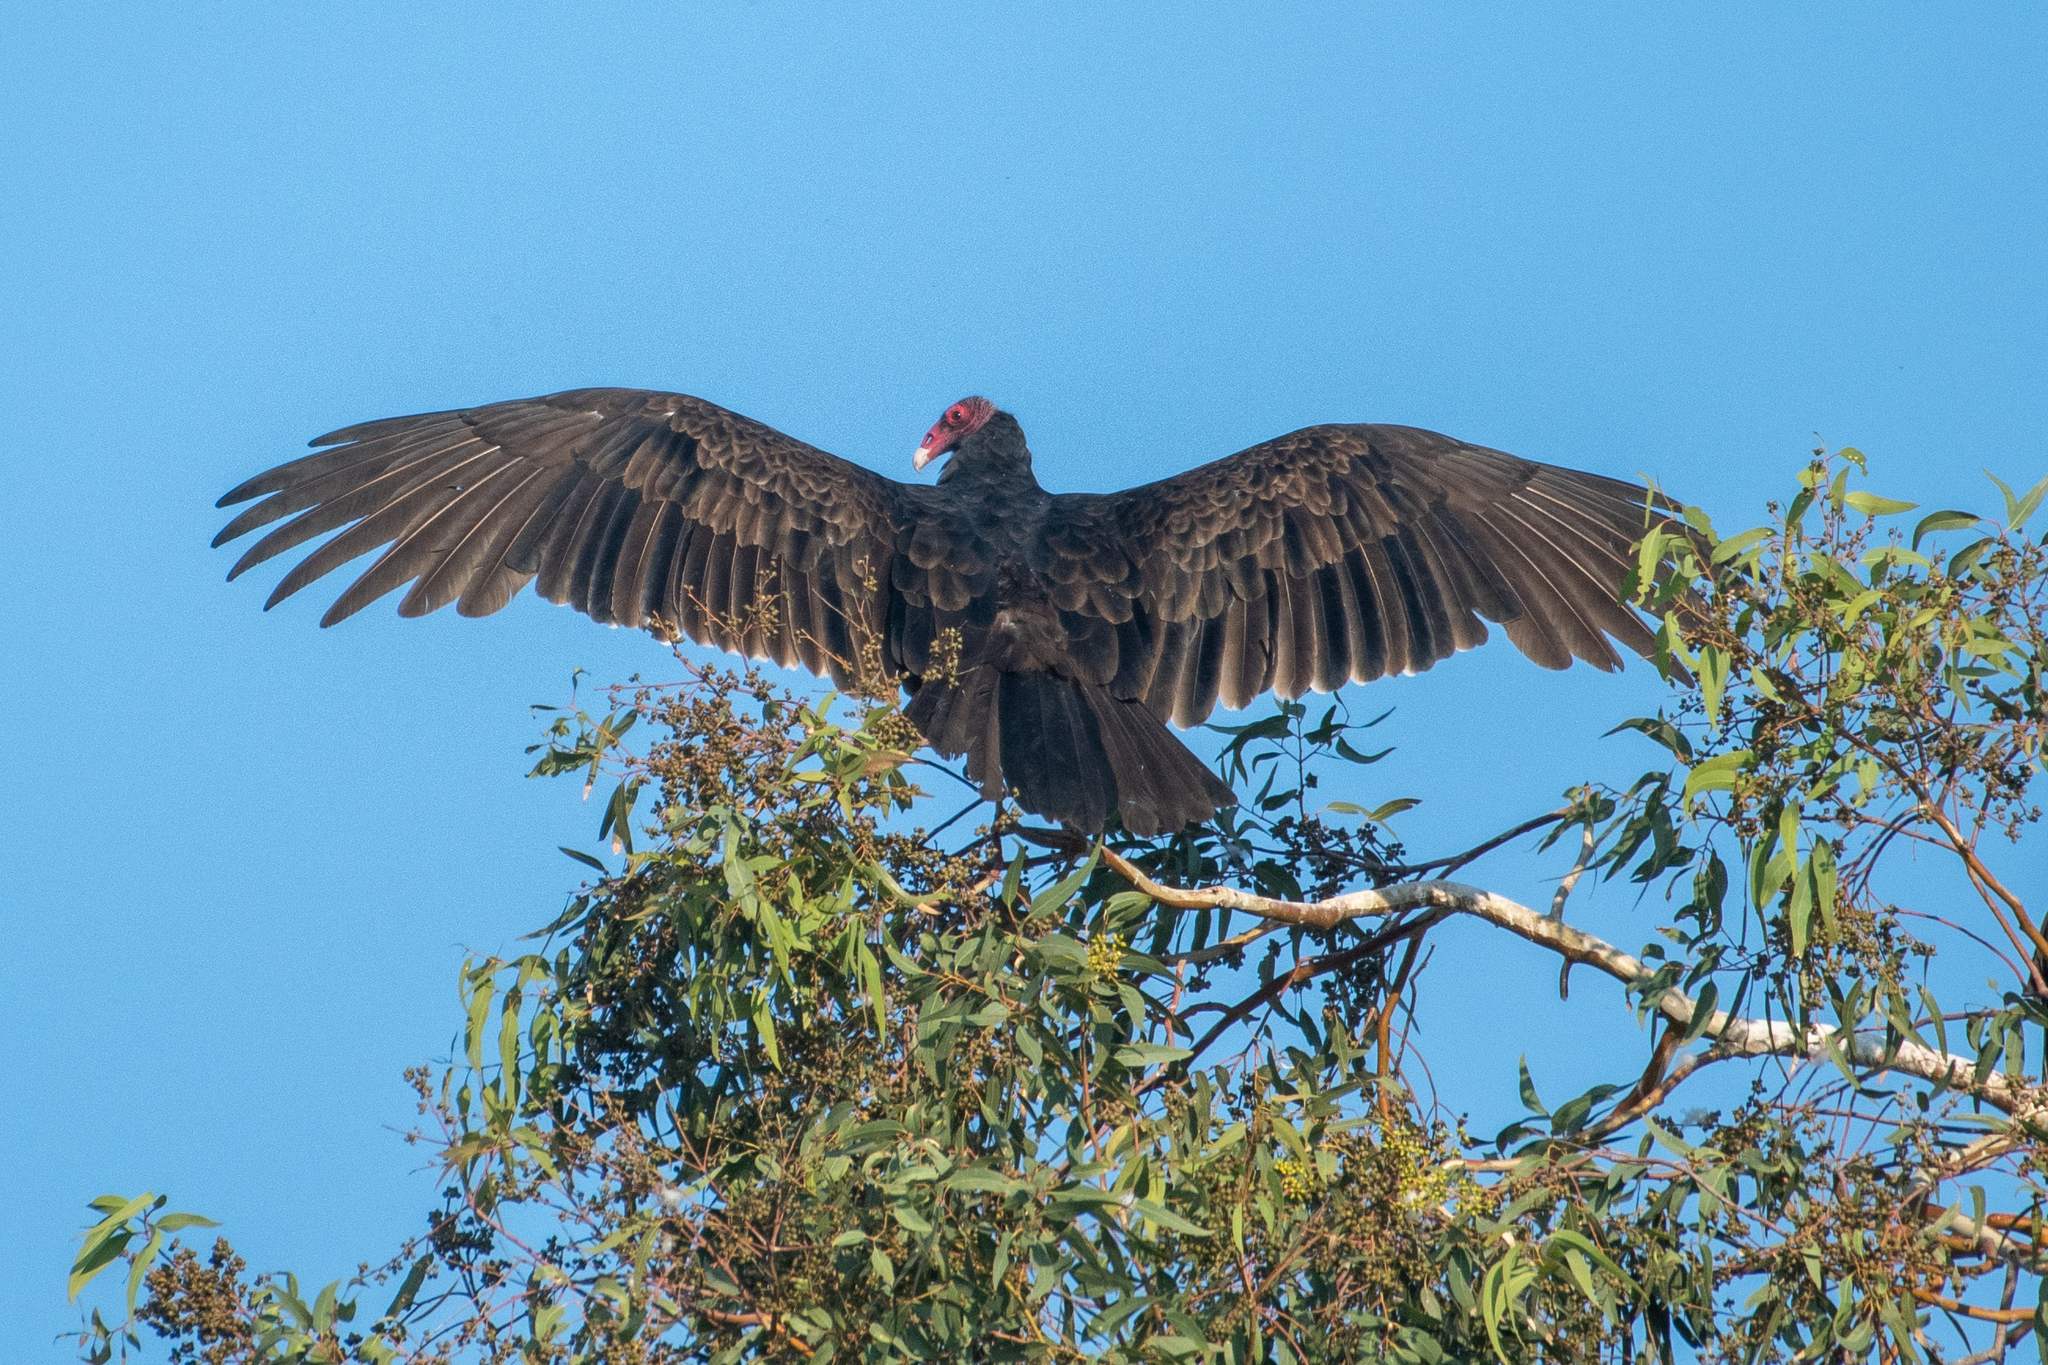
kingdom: Animalia
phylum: Chordata
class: Aves
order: Accipitriformes
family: Cathartidae
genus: Cathartes
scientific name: Cathartes aura
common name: Turkey vulture
